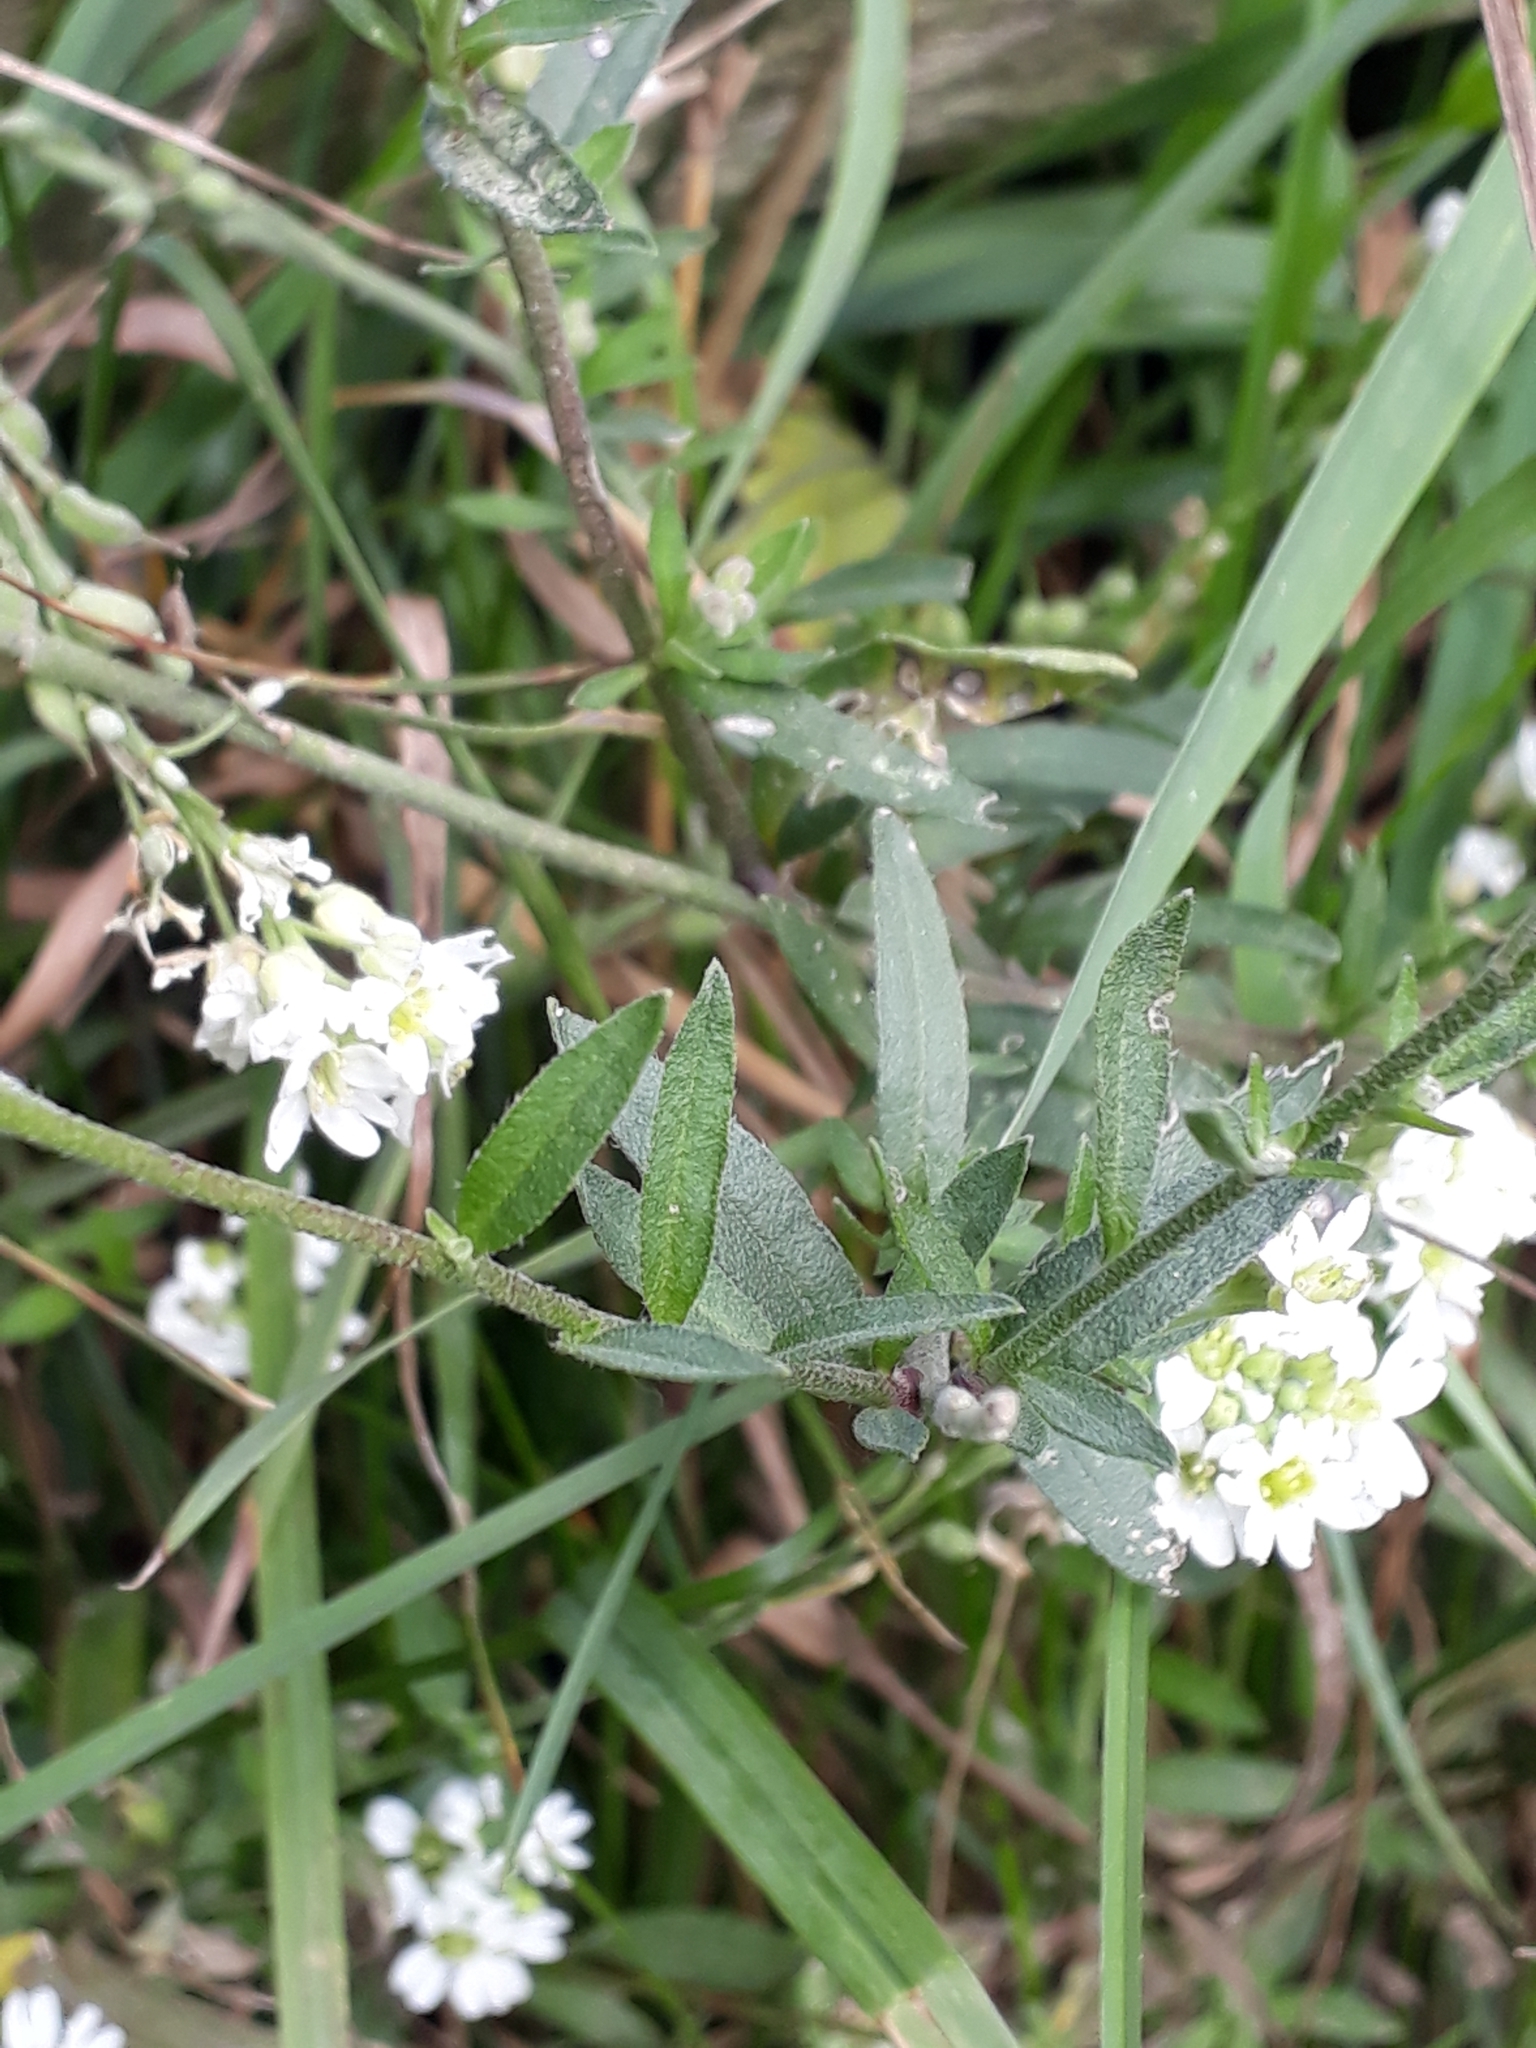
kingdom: Plantae
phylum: Tracheophyta
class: Magnoliopsida
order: Brassicales
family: Brassicaceae
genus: Berteroa
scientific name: Berteroa incana
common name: Hoary alison
